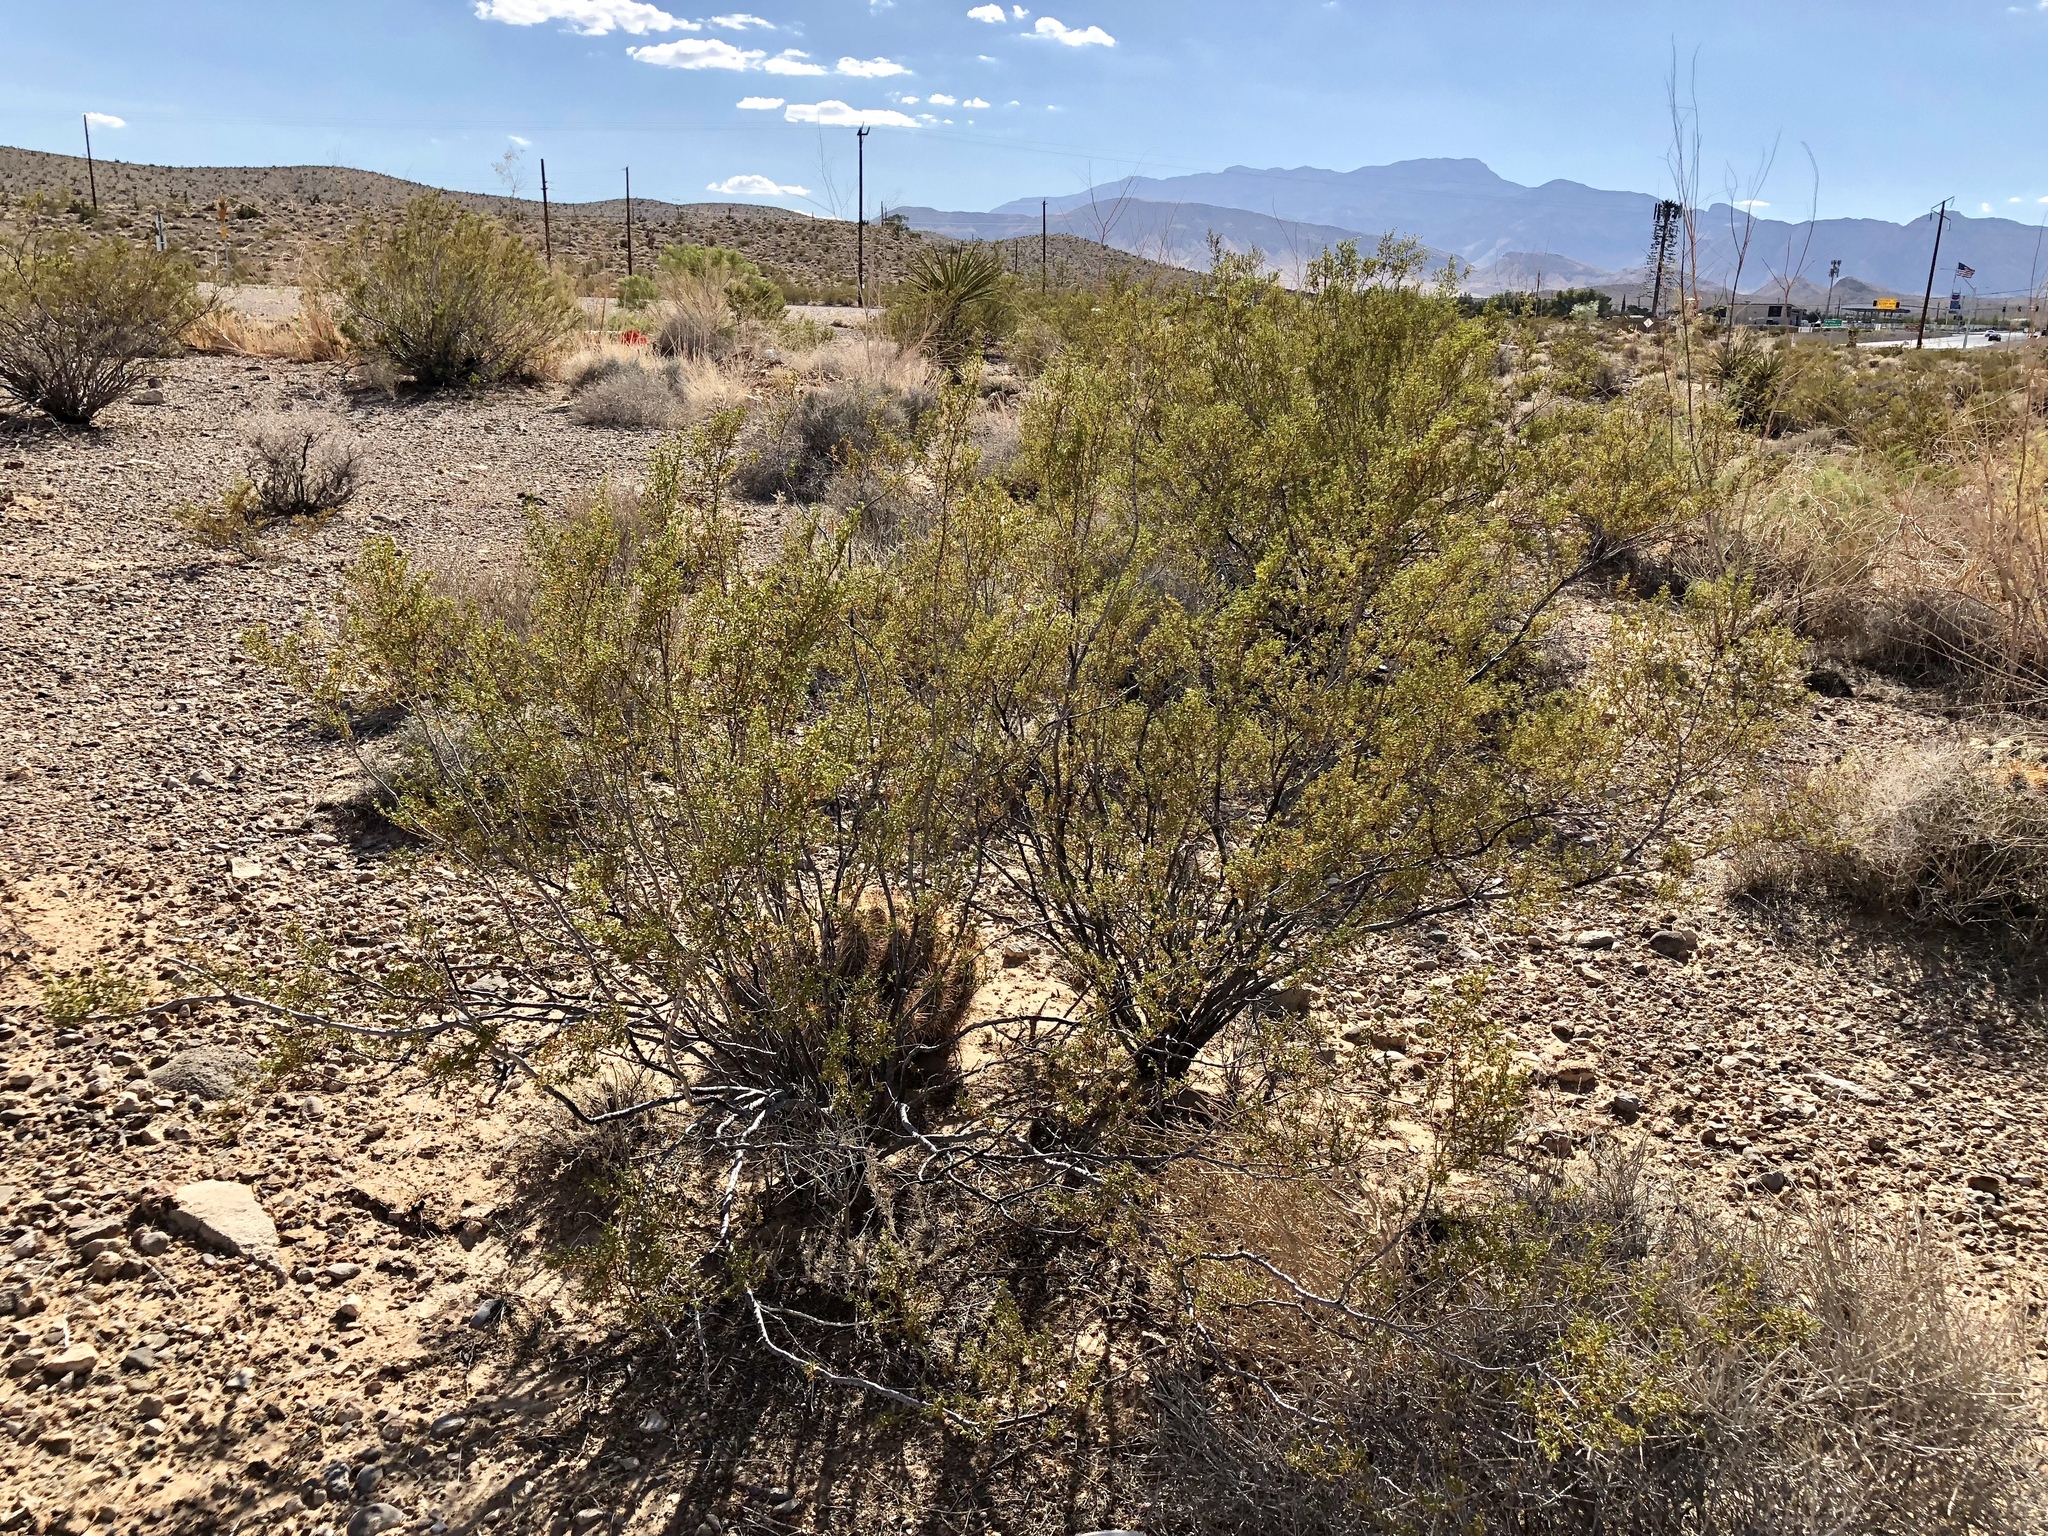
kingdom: Plantae
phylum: Tracheophyta
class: Magnoliopsida
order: Zygophyllales
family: Zygophyllaceae
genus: Larrea
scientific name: Larrea tridentata
